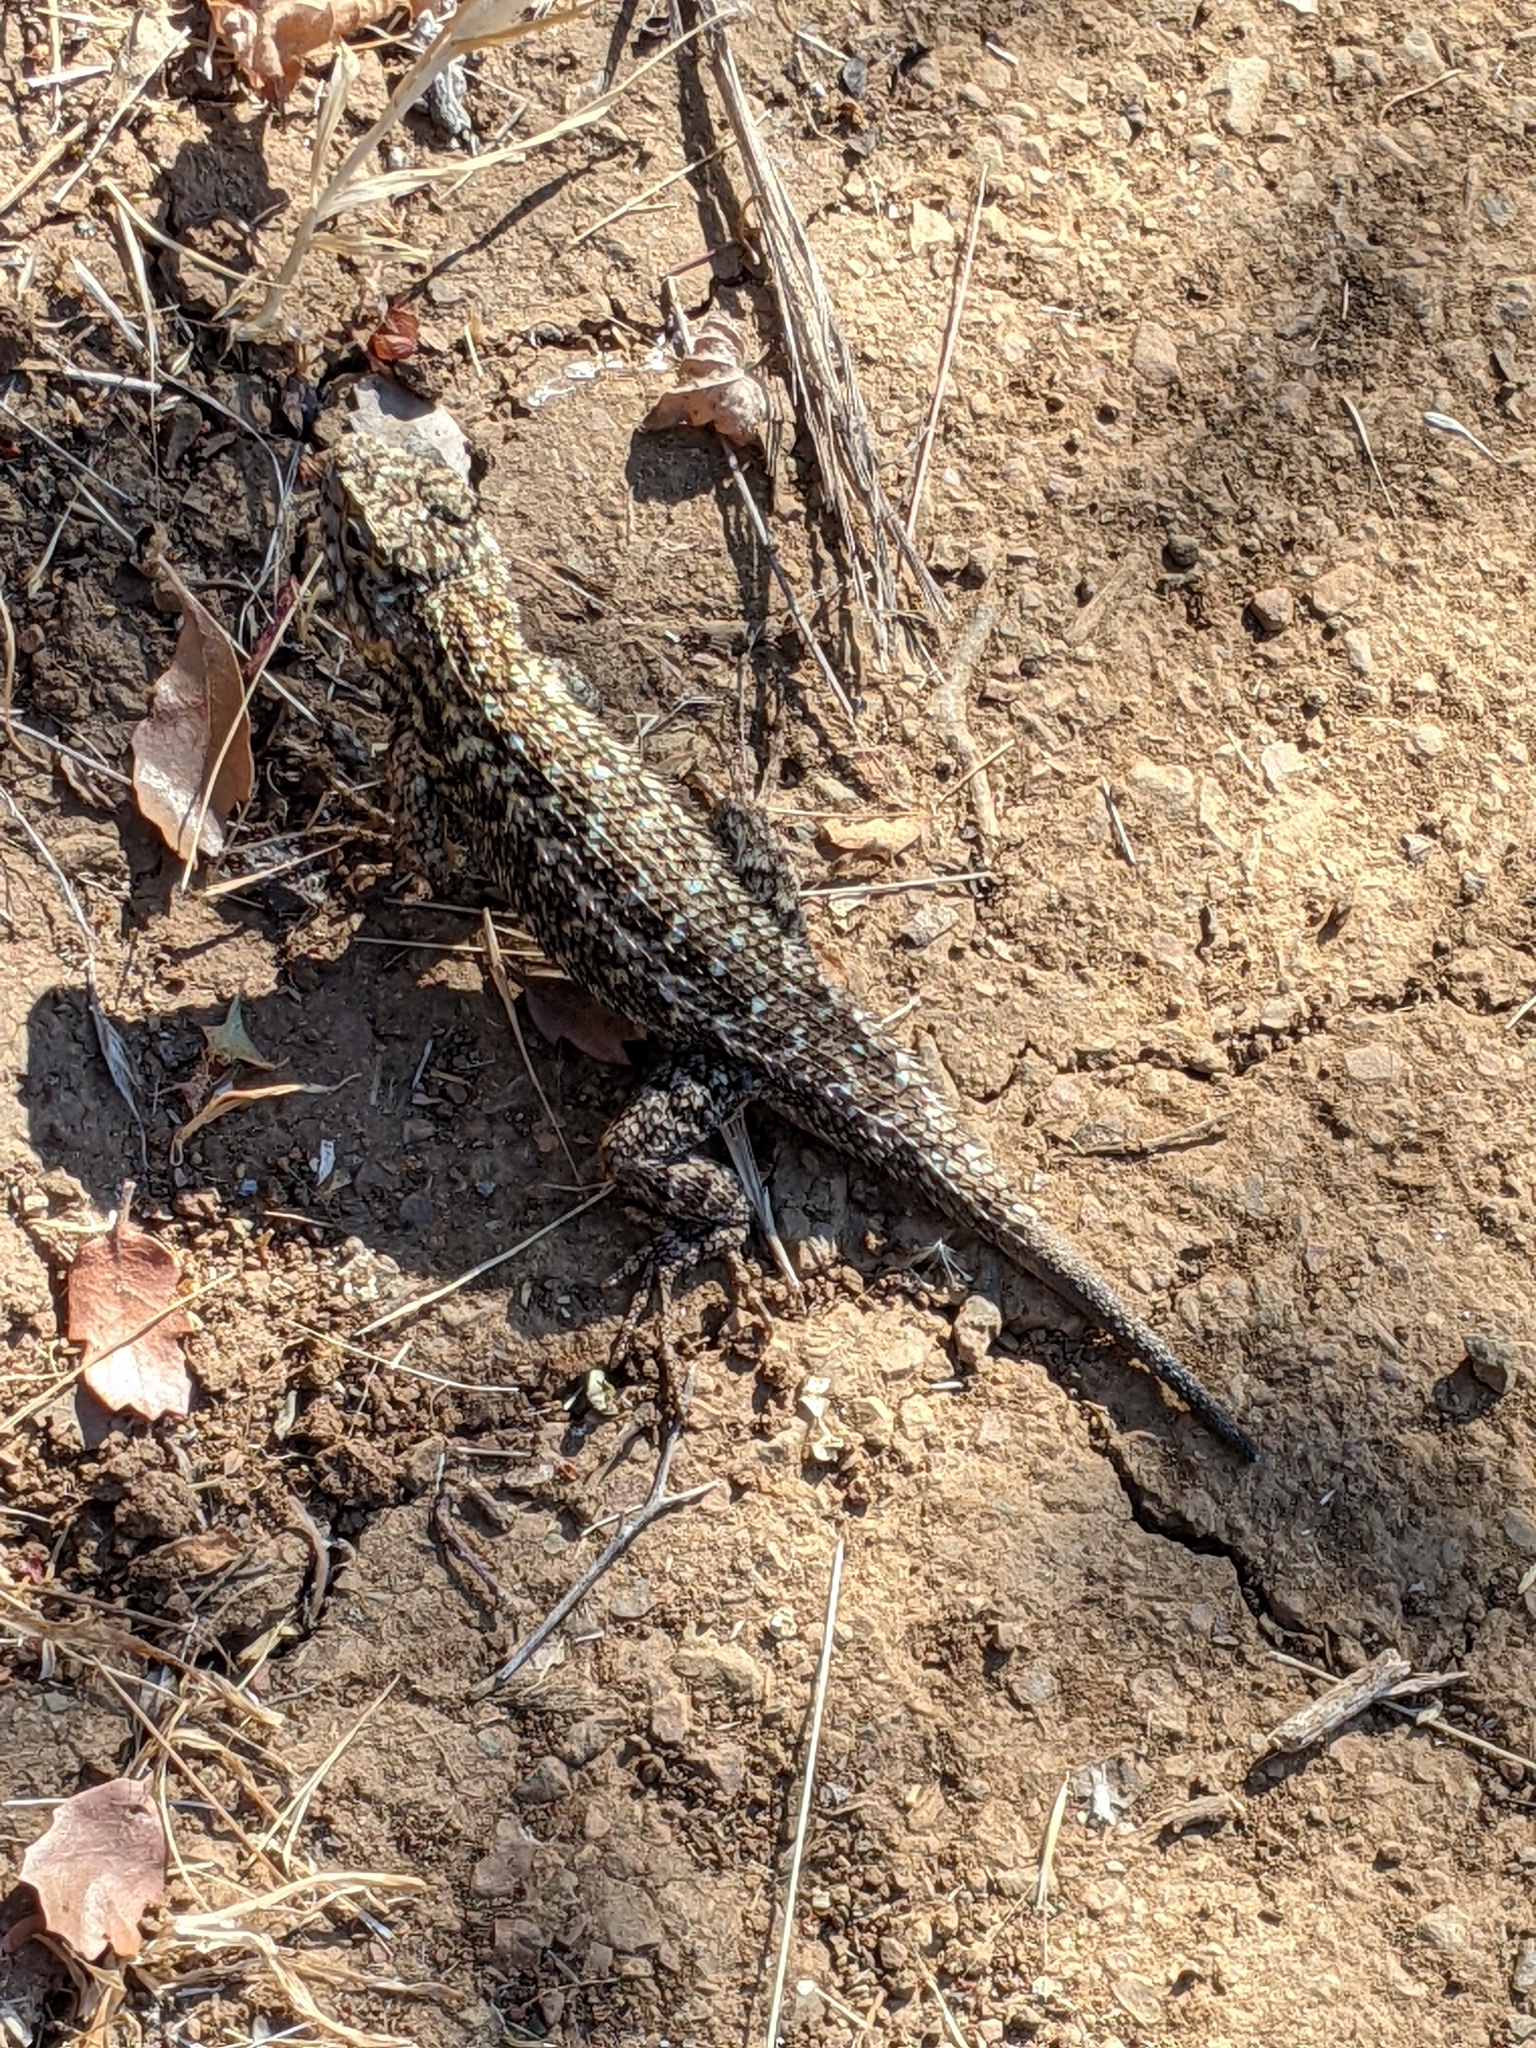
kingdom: Animalia
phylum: Chordata
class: Squamata
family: Phrynosomatidae
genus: Sceloporus
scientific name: Sceloporus occidentalis
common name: Western fence lizard
